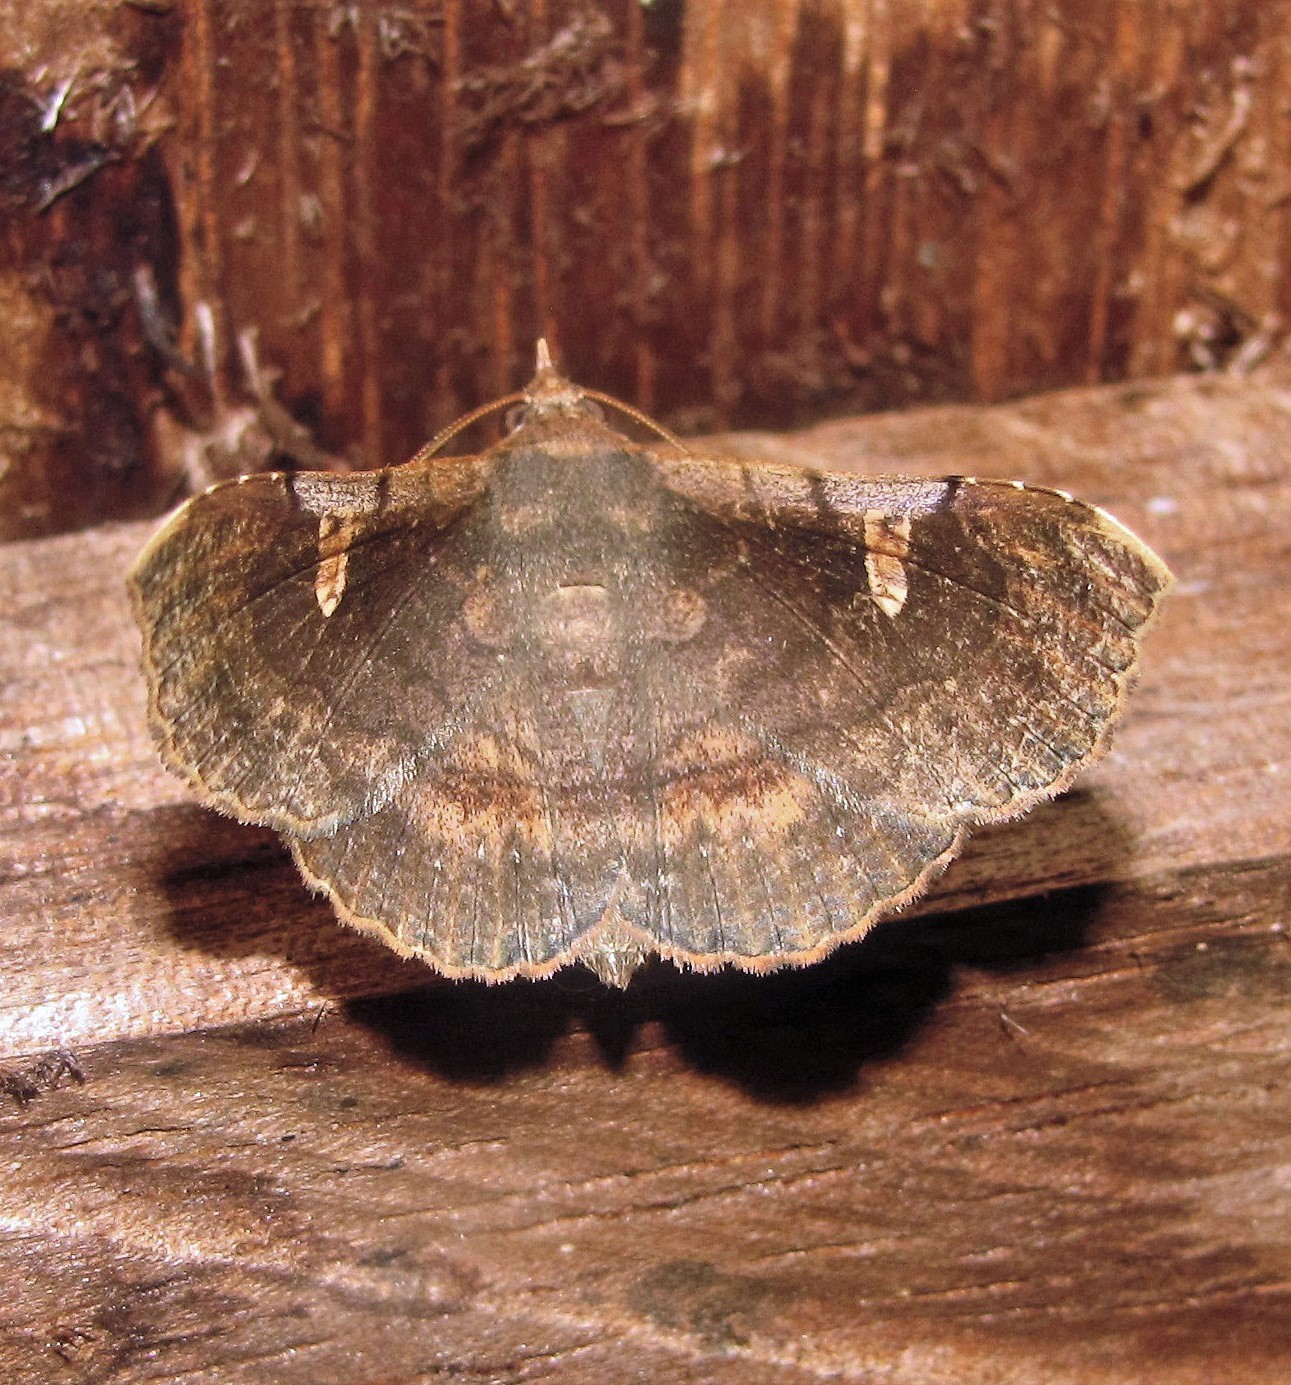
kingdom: Animalia
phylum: Arthropoda
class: Insecta
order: Lepidoptera
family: Erebidae
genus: Azeta
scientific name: Azeta repugnalis
